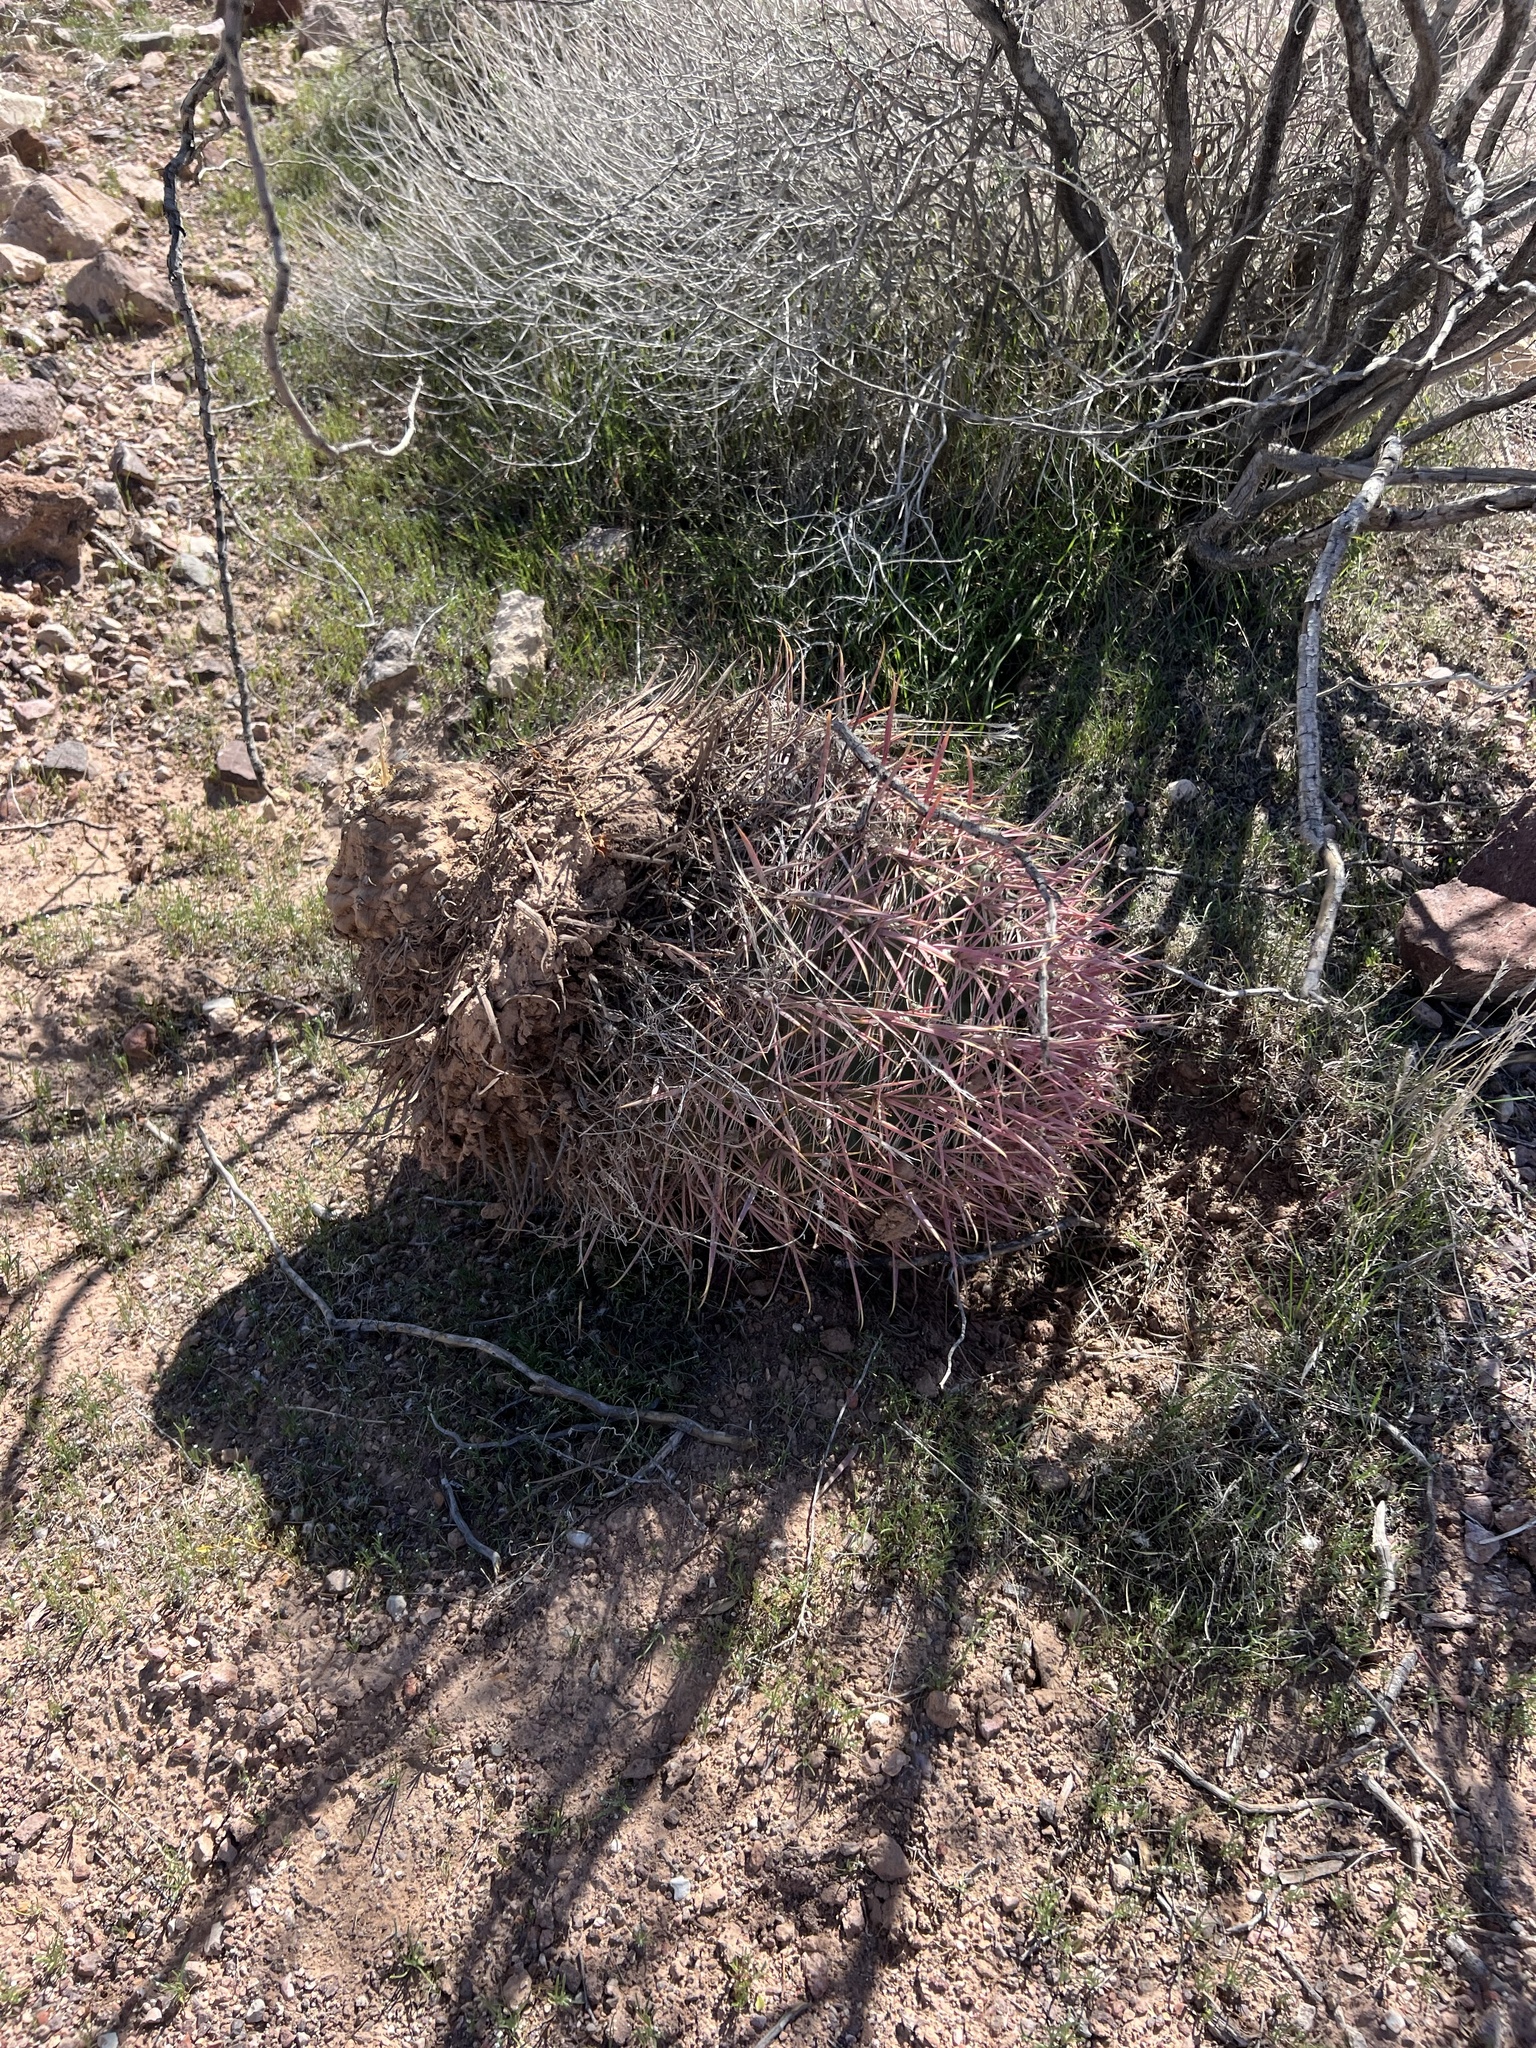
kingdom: Plantae
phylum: Tracheophyta
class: Magnoliopsida
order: Caryophyllales
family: Cactaceae
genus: Ferocactus
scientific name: Ferocactus cylindraceus
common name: California barrel cactus
